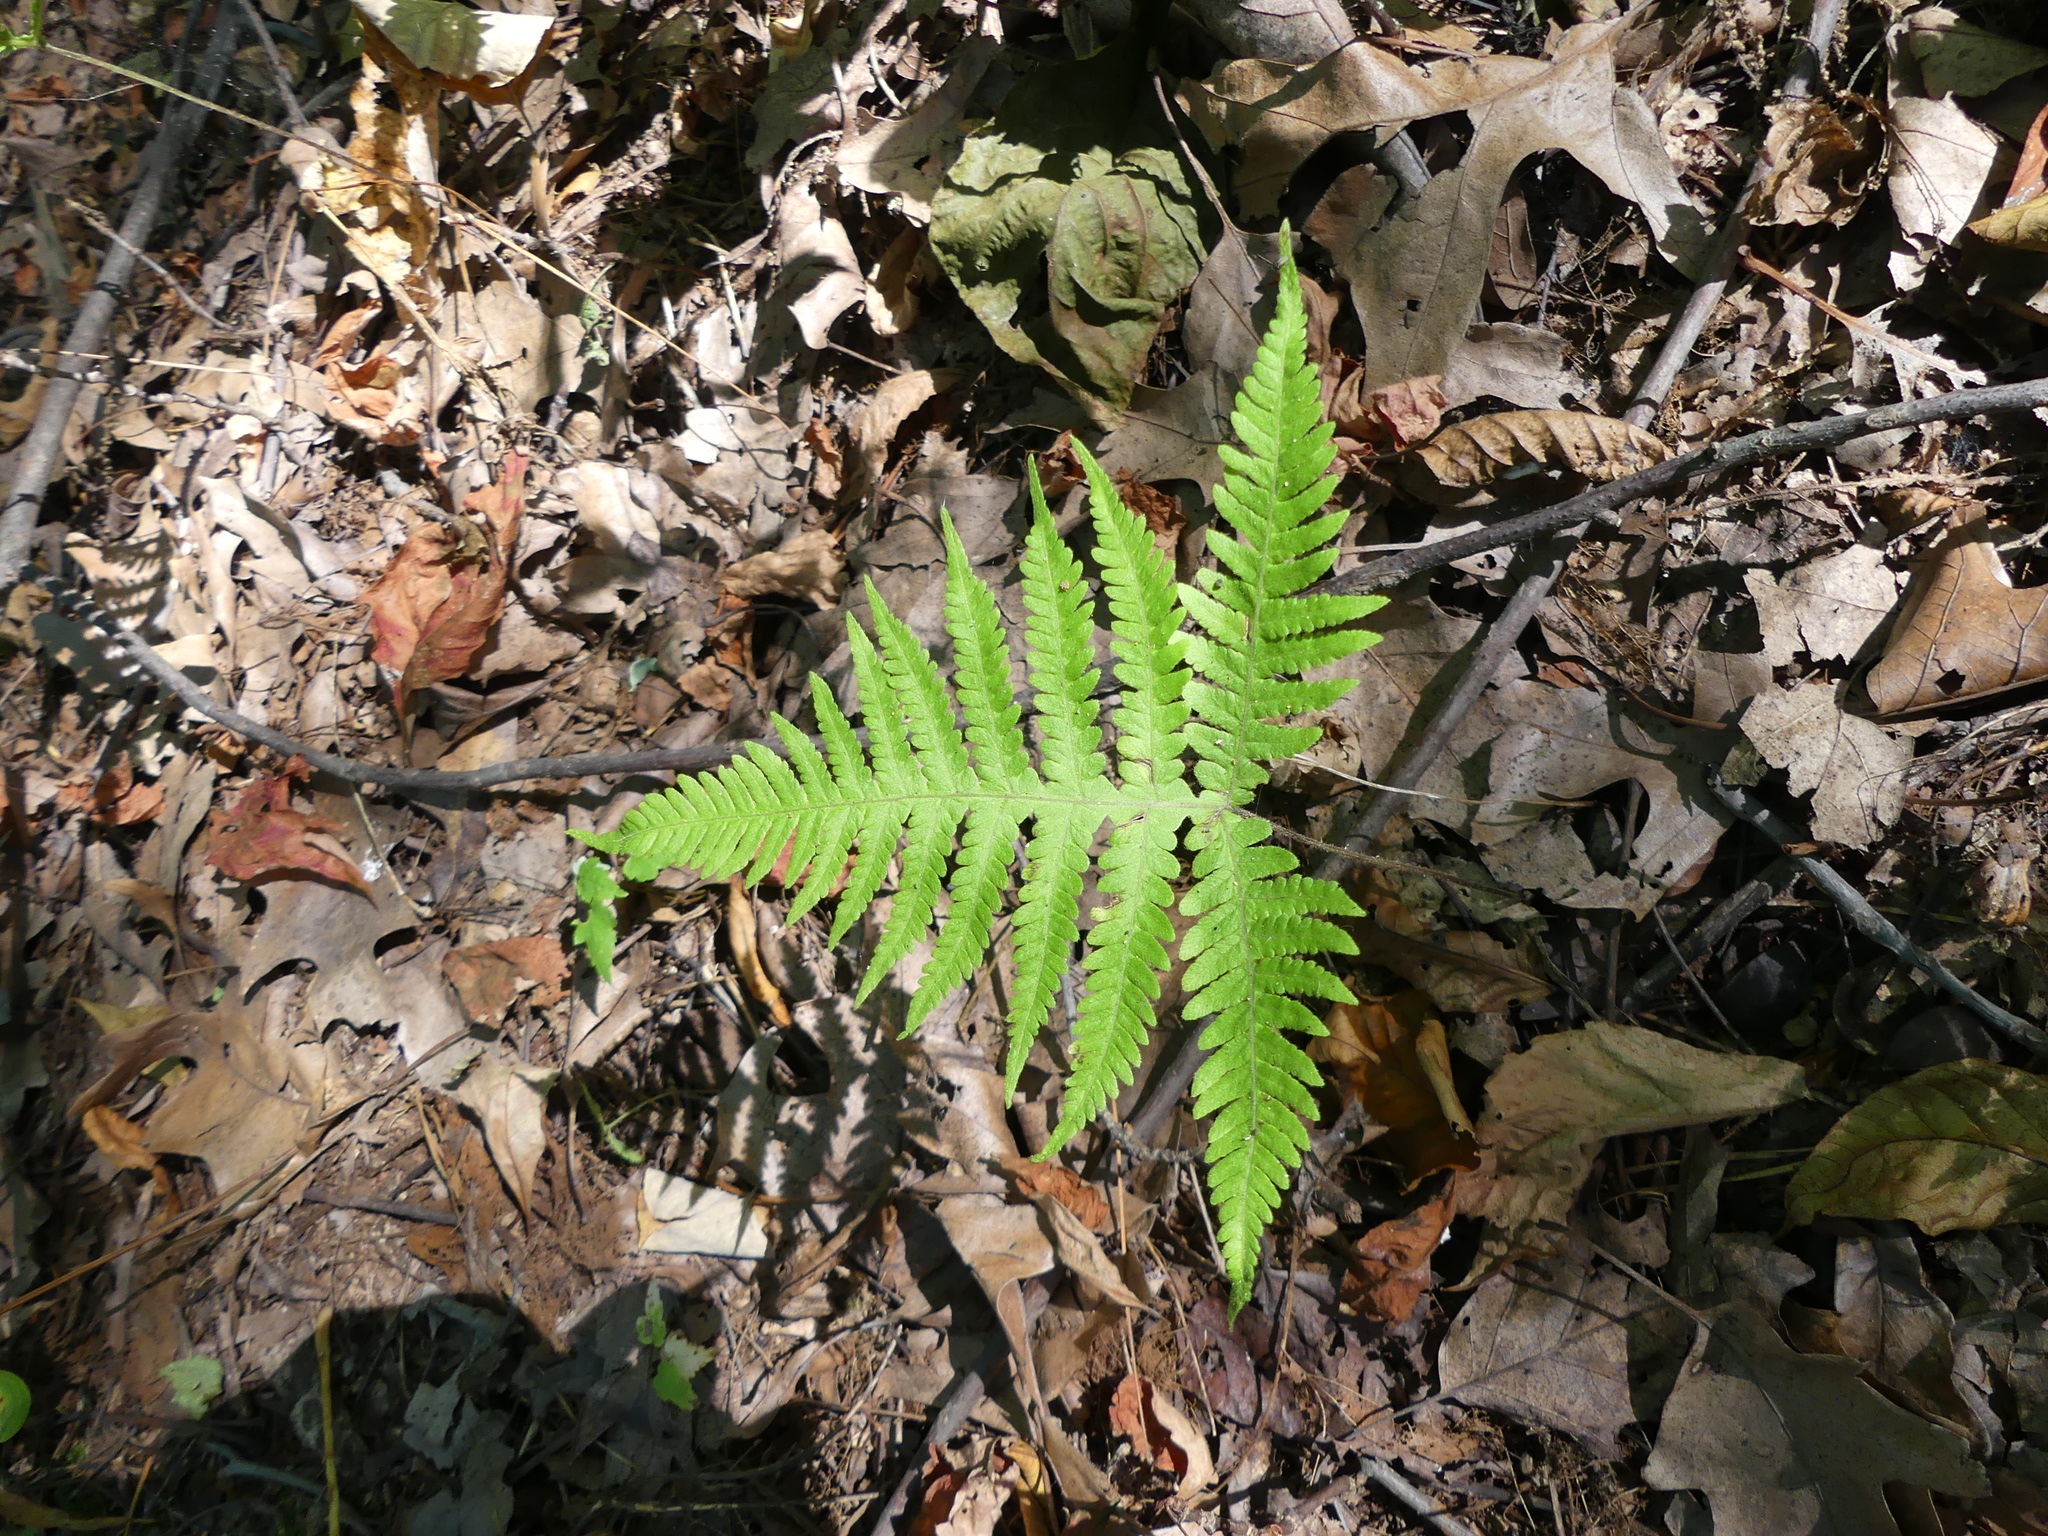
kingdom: Plantae
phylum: Tracheophyta
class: Polypodiopsida
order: Polypodiales
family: Thelypteridaceae
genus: Phegopteris
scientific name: Phegopteris hexagonoptera
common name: Broad beech fern
